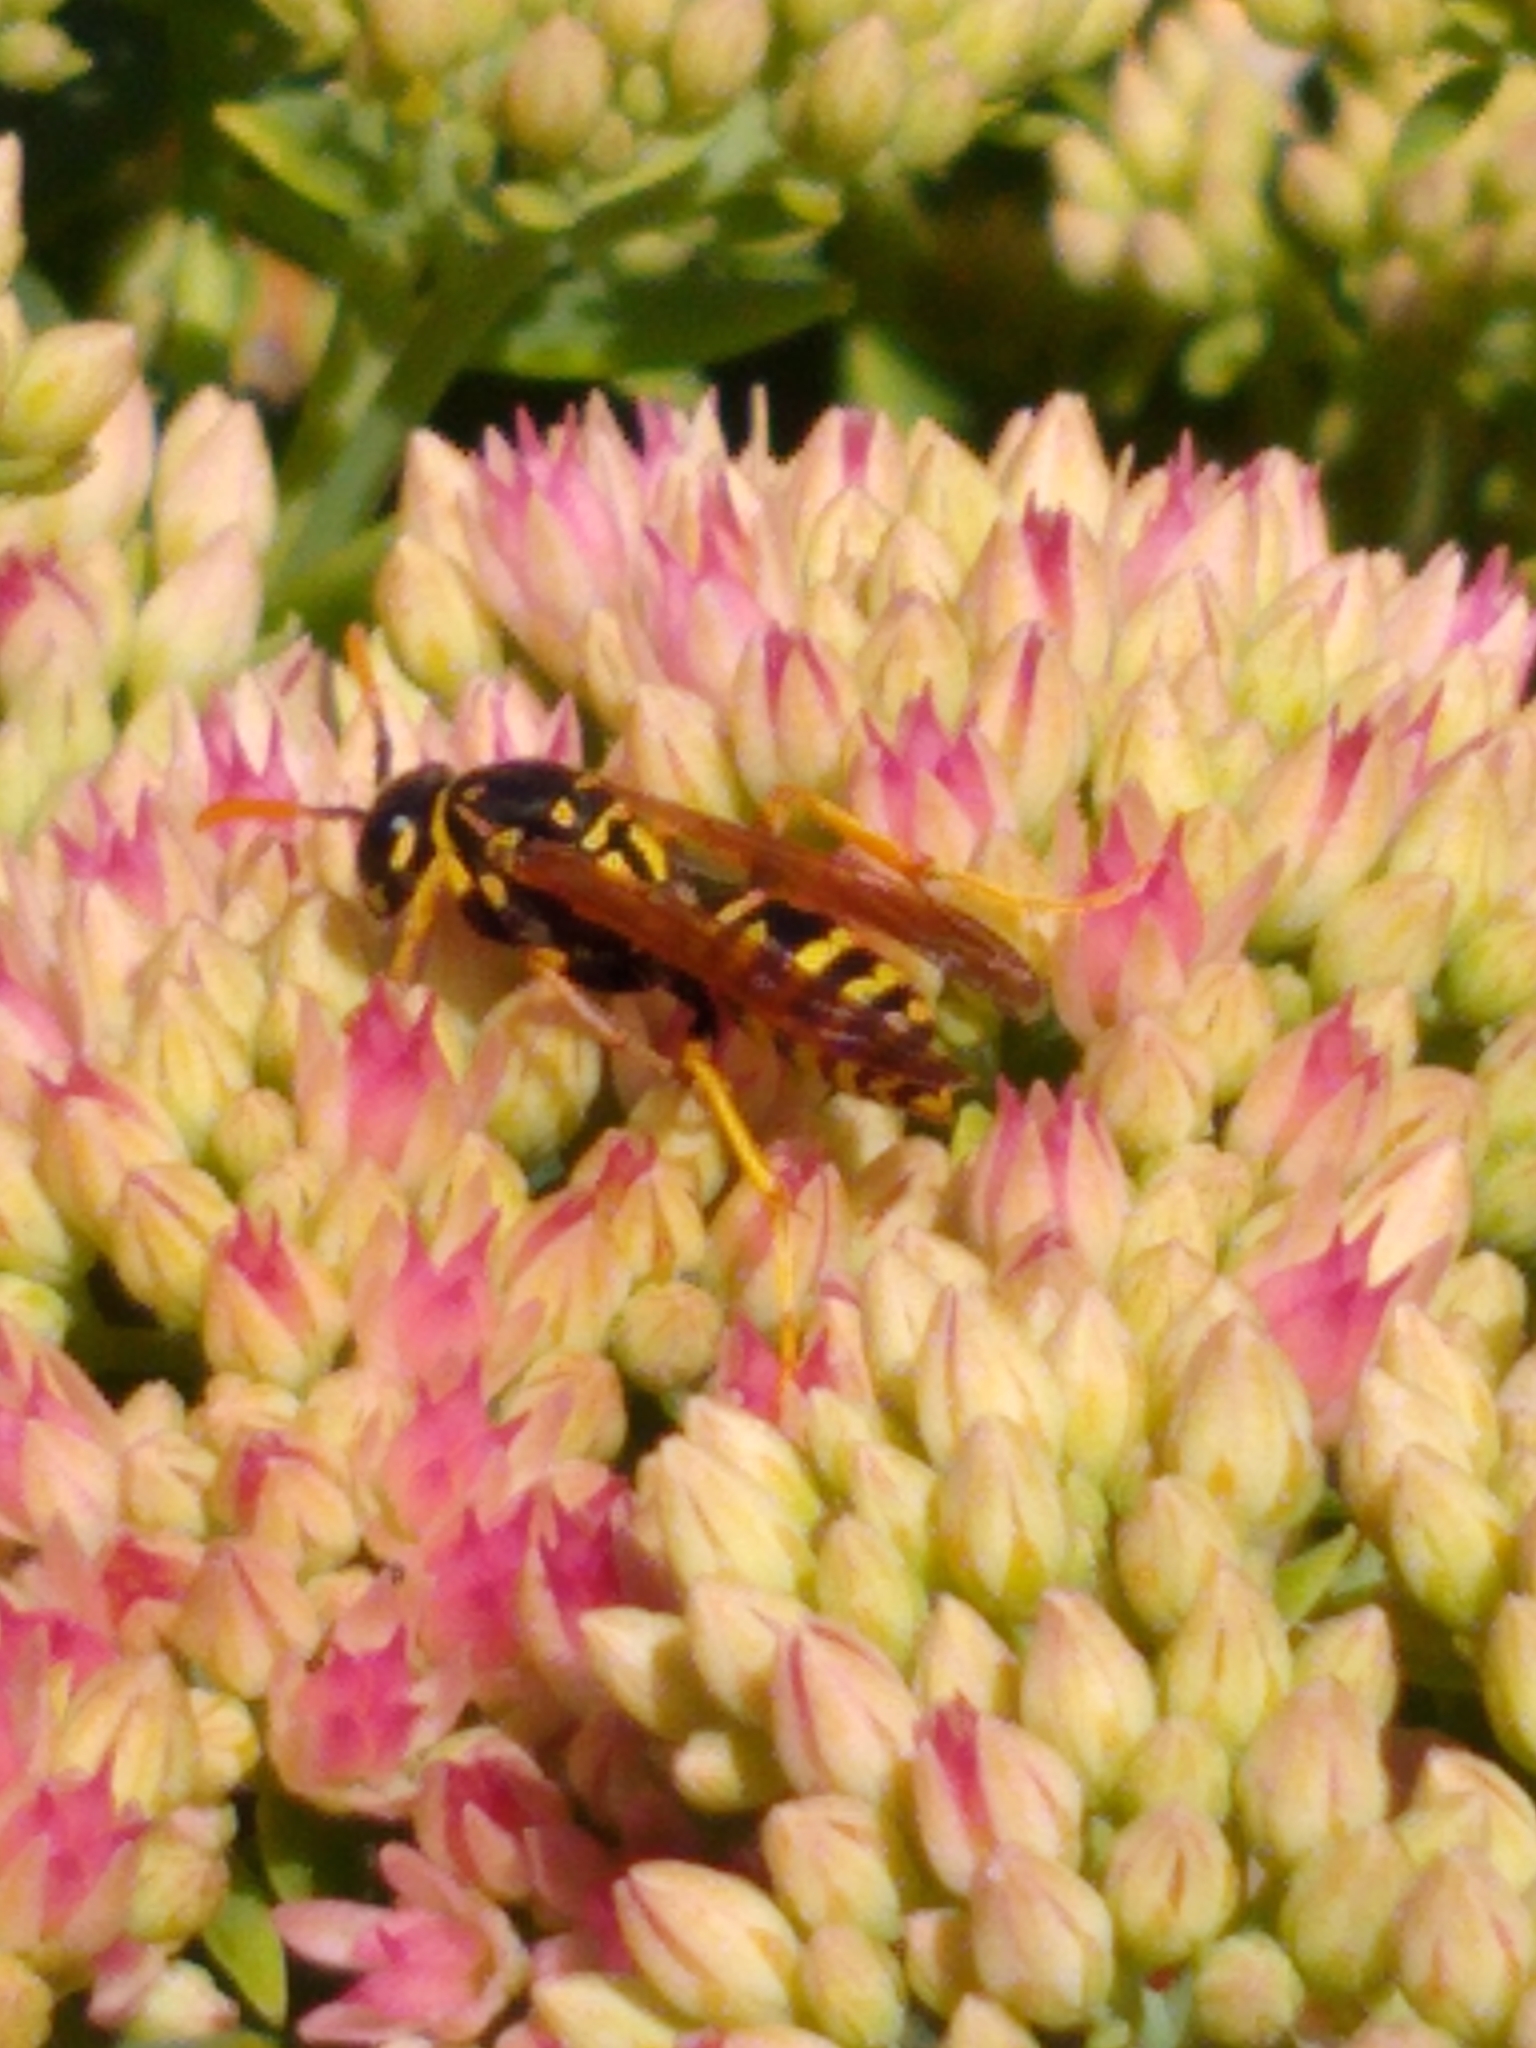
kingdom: Animalia
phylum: Arthropoda
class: Insecta
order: Hymenoptera
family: Eumenidae
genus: Polistes
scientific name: Polistes dominula
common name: Paper wasp
